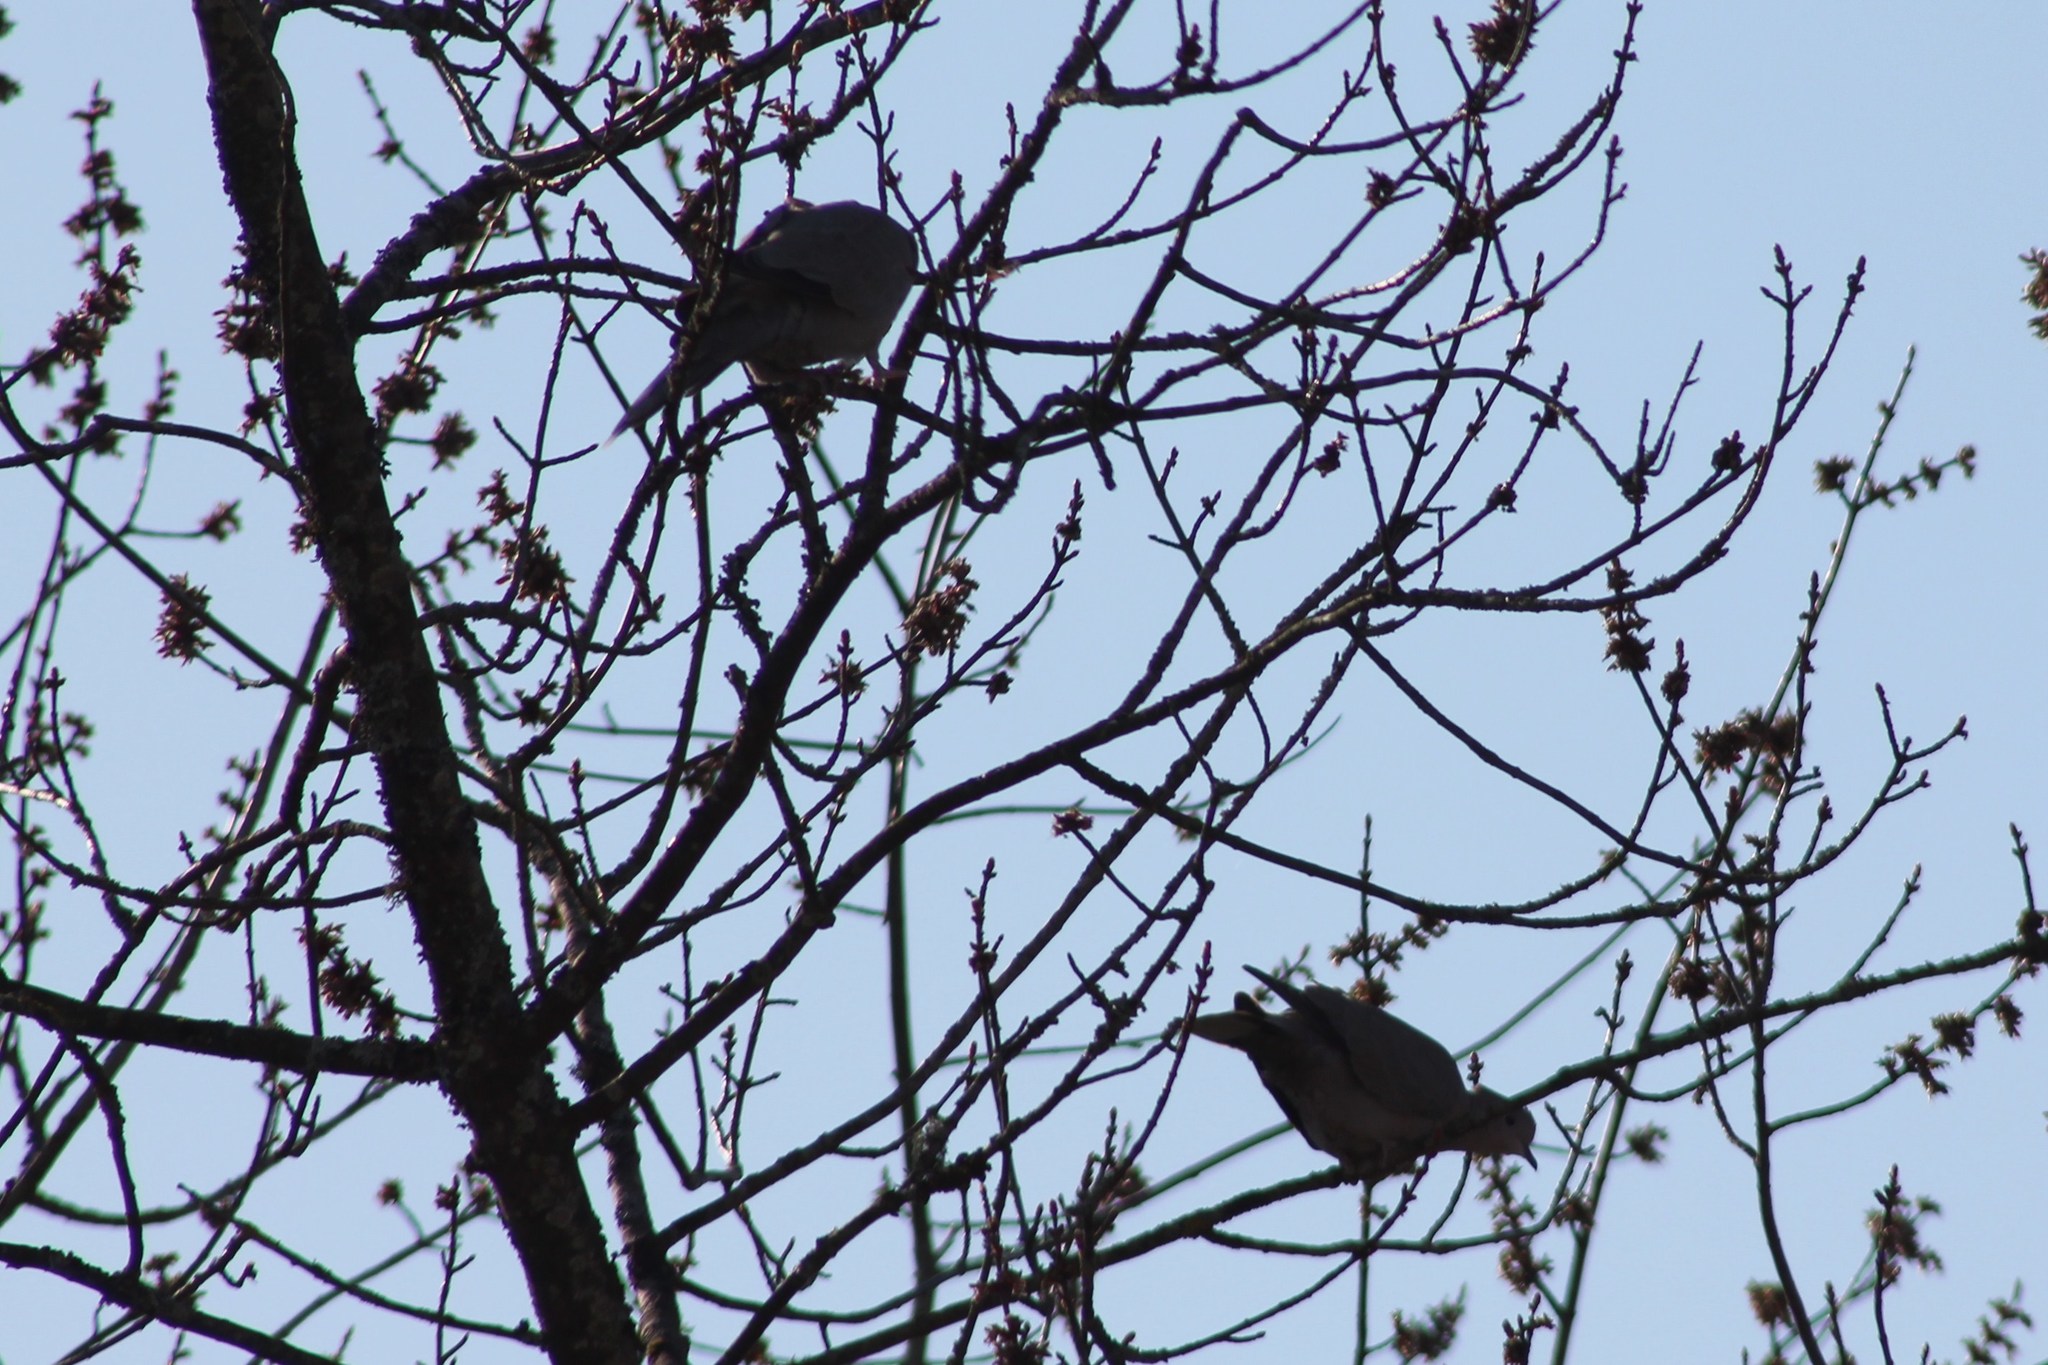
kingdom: Animalia
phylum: Chordata
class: Aves
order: Columbiformes
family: Columbidae
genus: Streptopelia
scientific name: Streptopelia decaocto
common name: Eurasian collared dove
